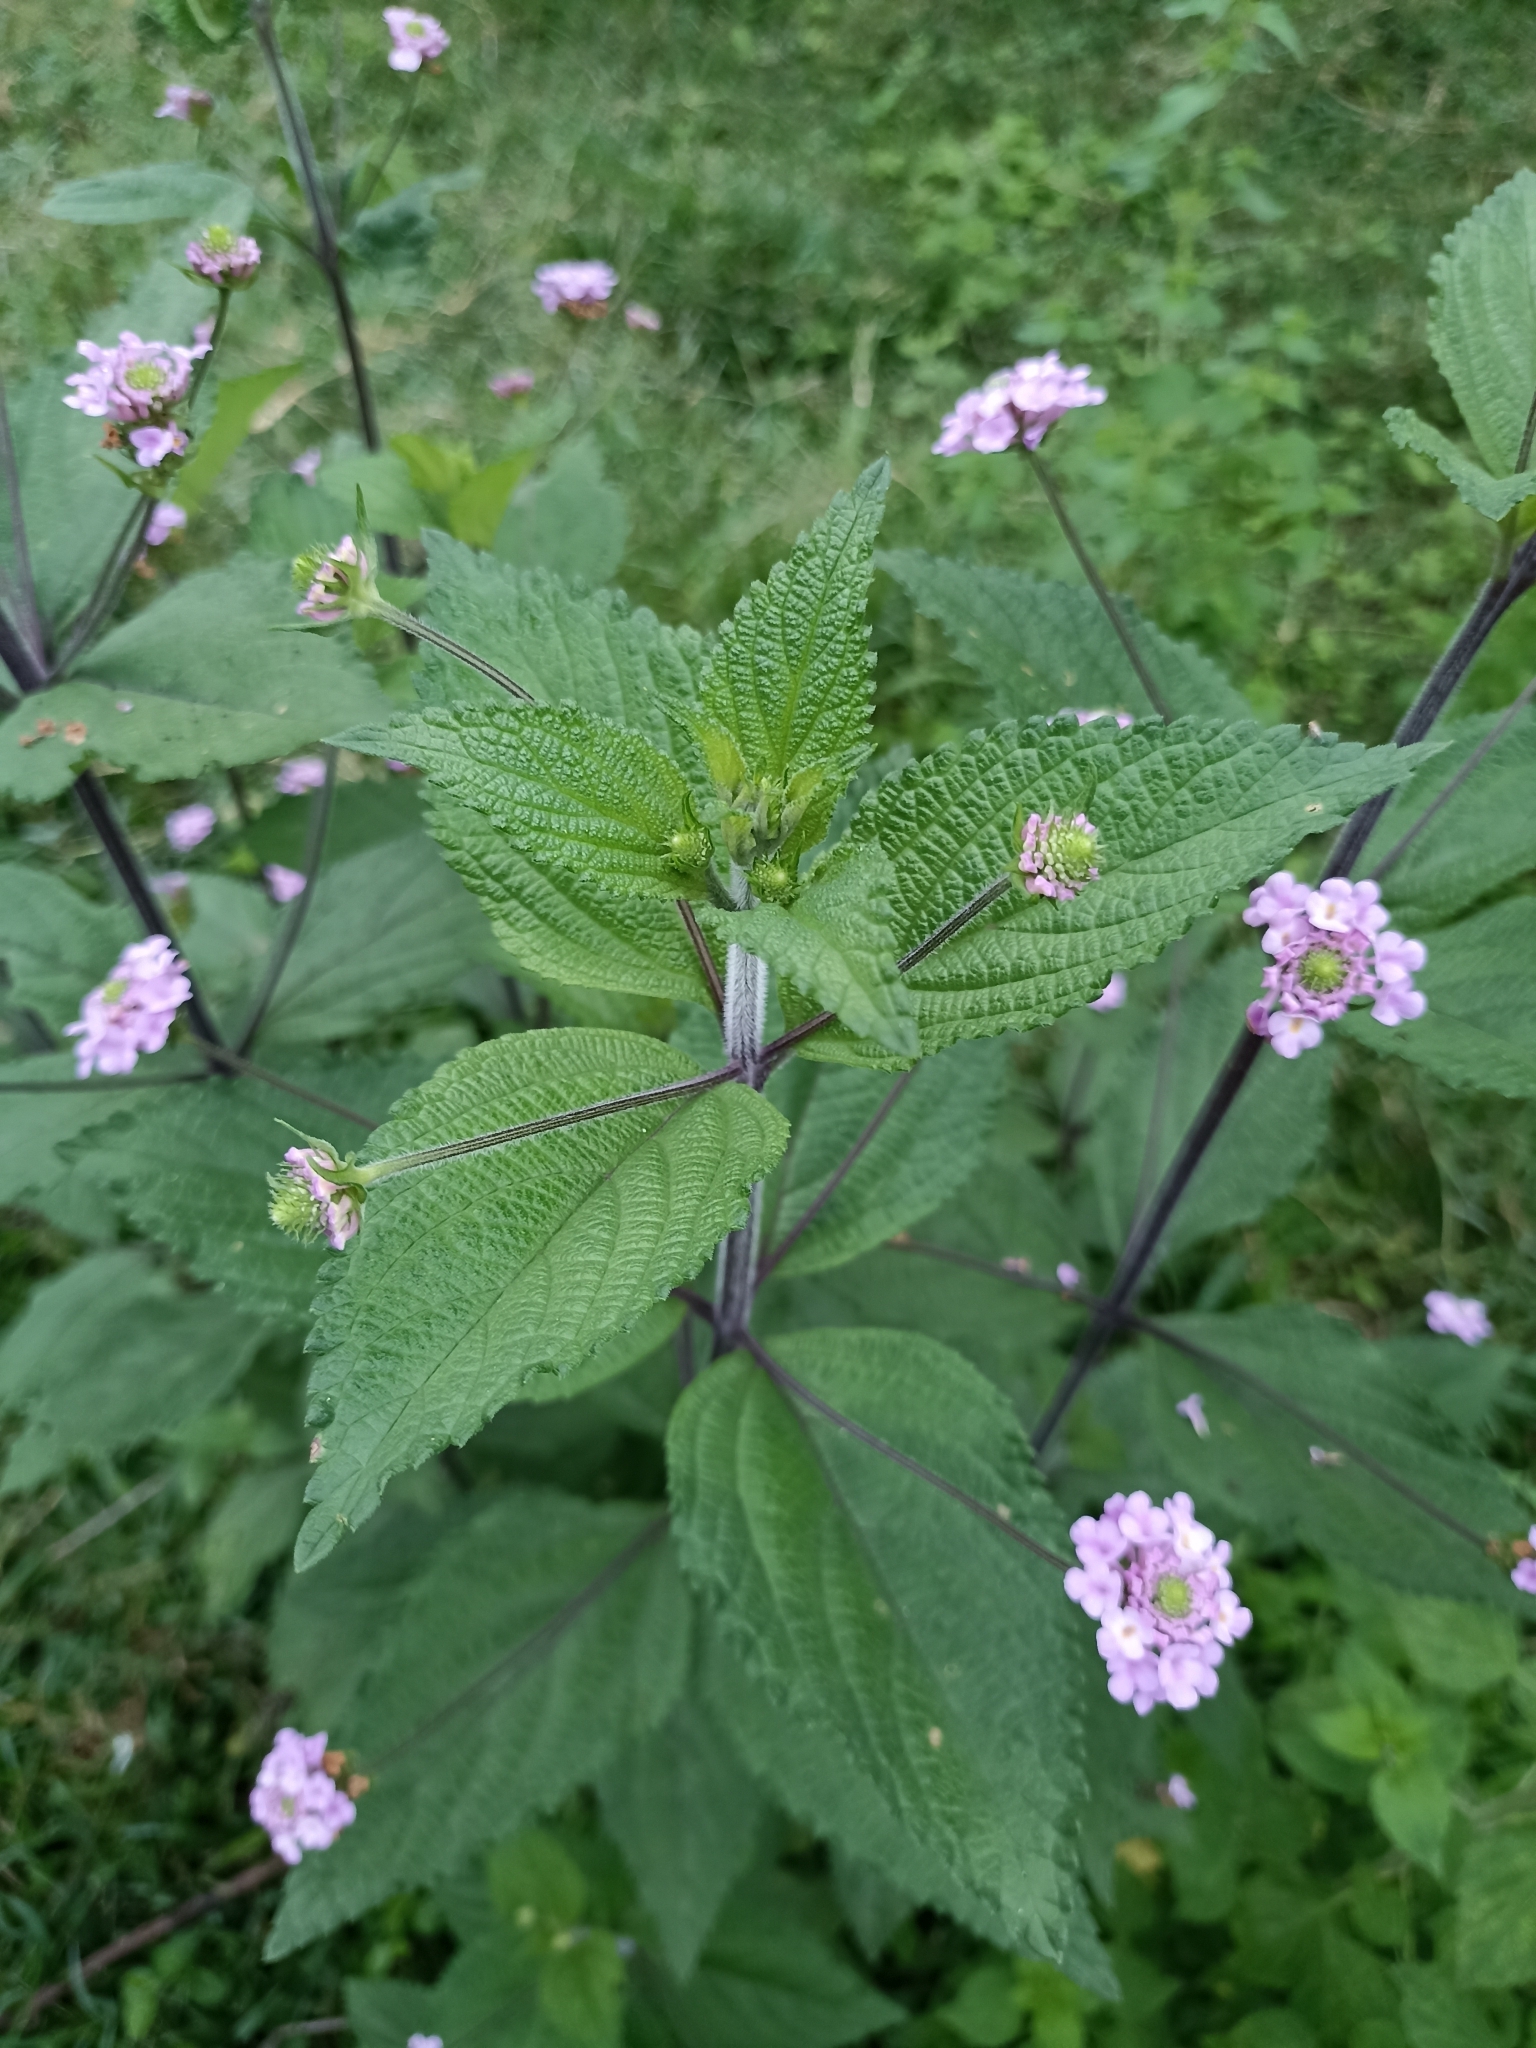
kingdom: Plantae
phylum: Tracheophyta
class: Magnoliopsida
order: Lamiales
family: Verbenaceae
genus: Lantana
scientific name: Lantana trifolia
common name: Sweet-sage
